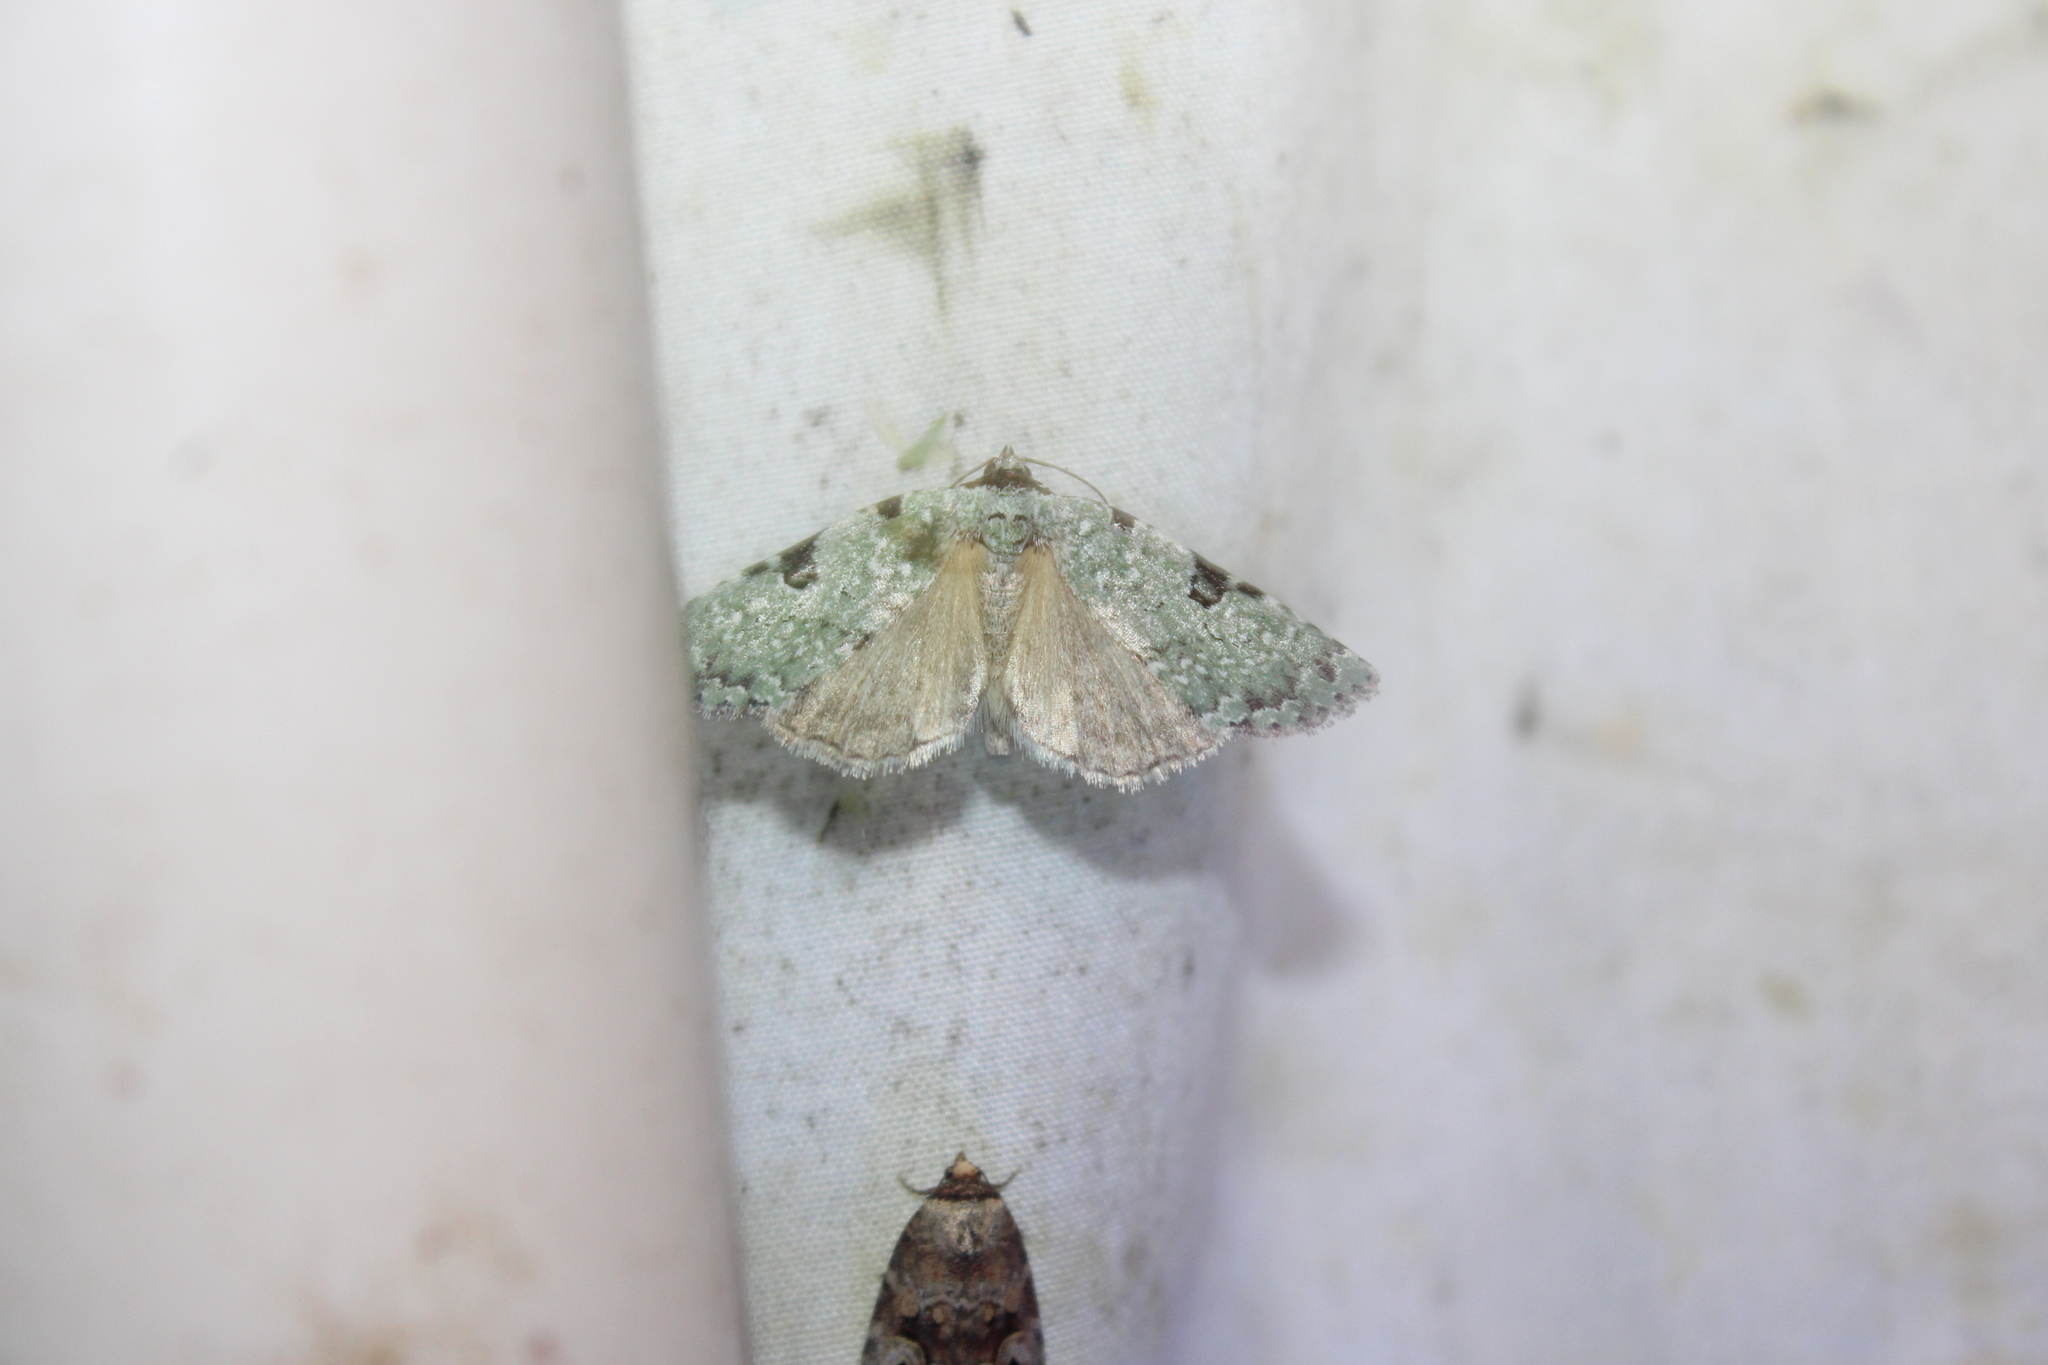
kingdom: Animalia
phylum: Arthropoda
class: Insecta
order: Lepidoptera
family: Noctuidae
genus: Leuconycta
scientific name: Leuconycta diphteroides
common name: Green leuconycta moth
